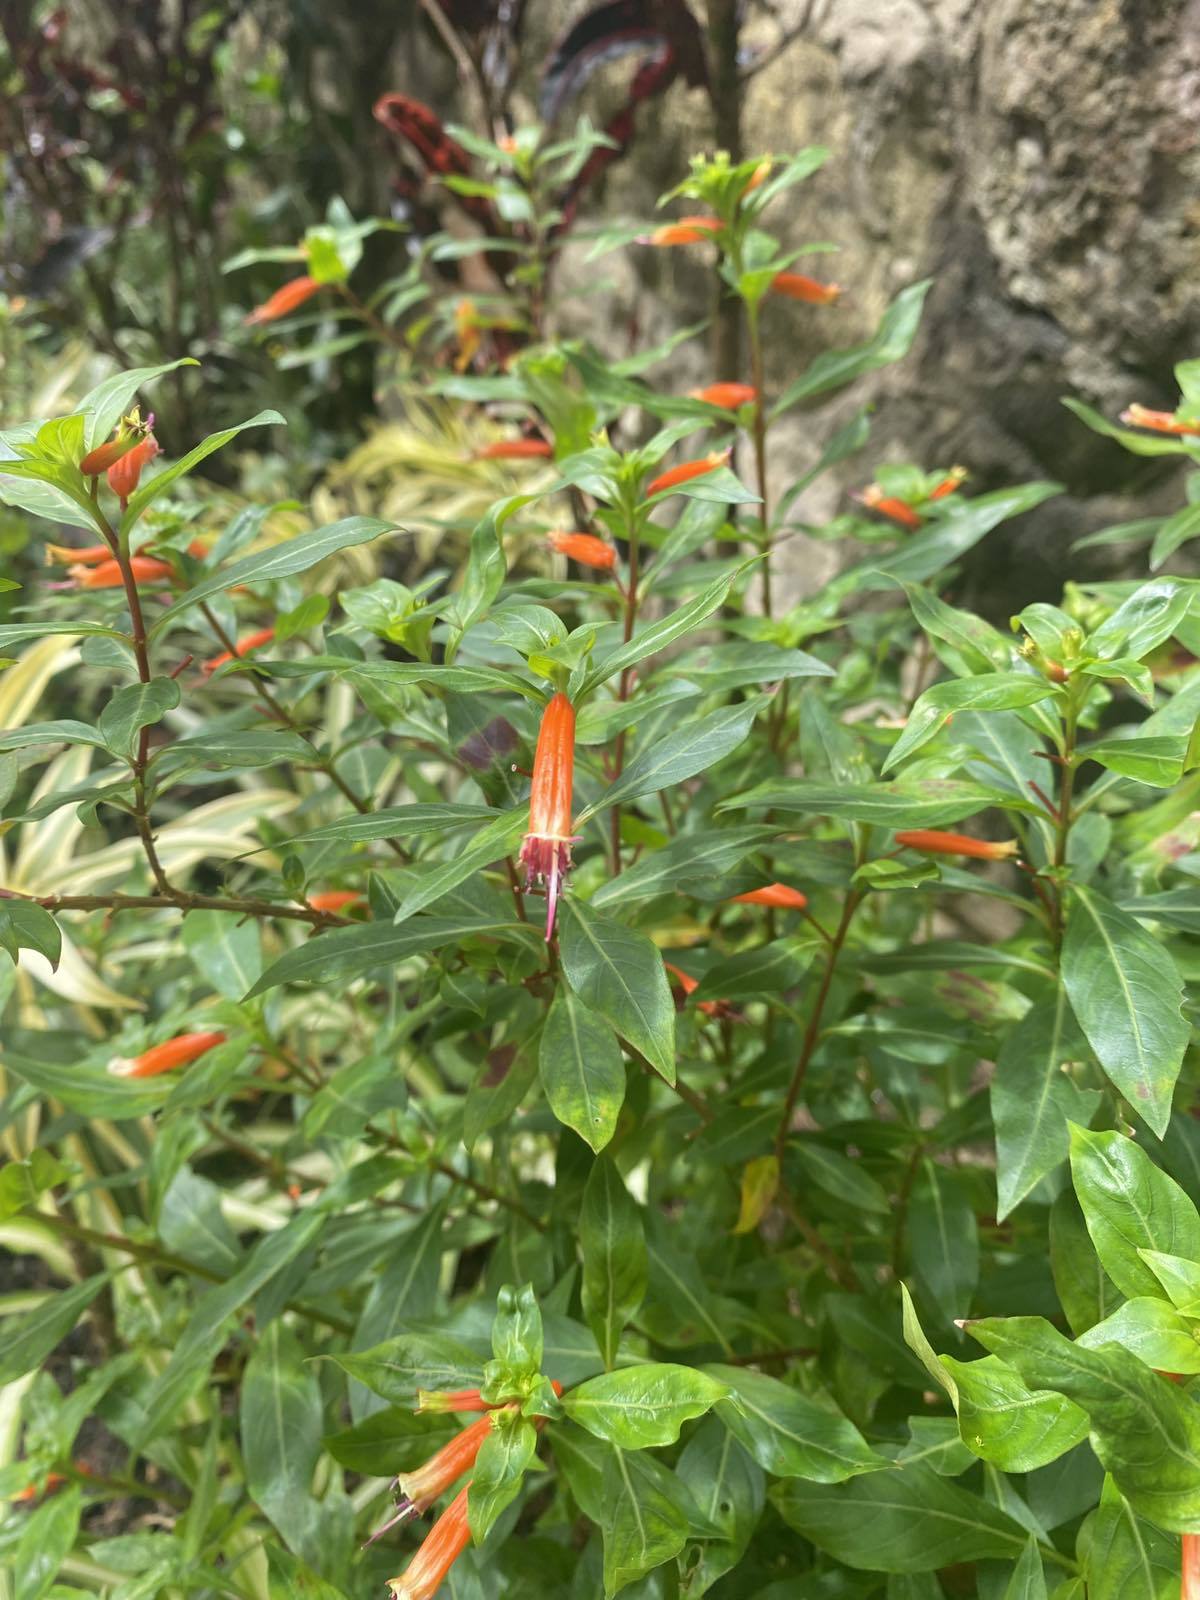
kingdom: Plantae
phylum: Tracheophyta
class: Magnoliopsida
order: Myrtales
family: Lythraceae
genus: Cuphea
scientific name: Cuphea ignea
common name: Cigar flower
